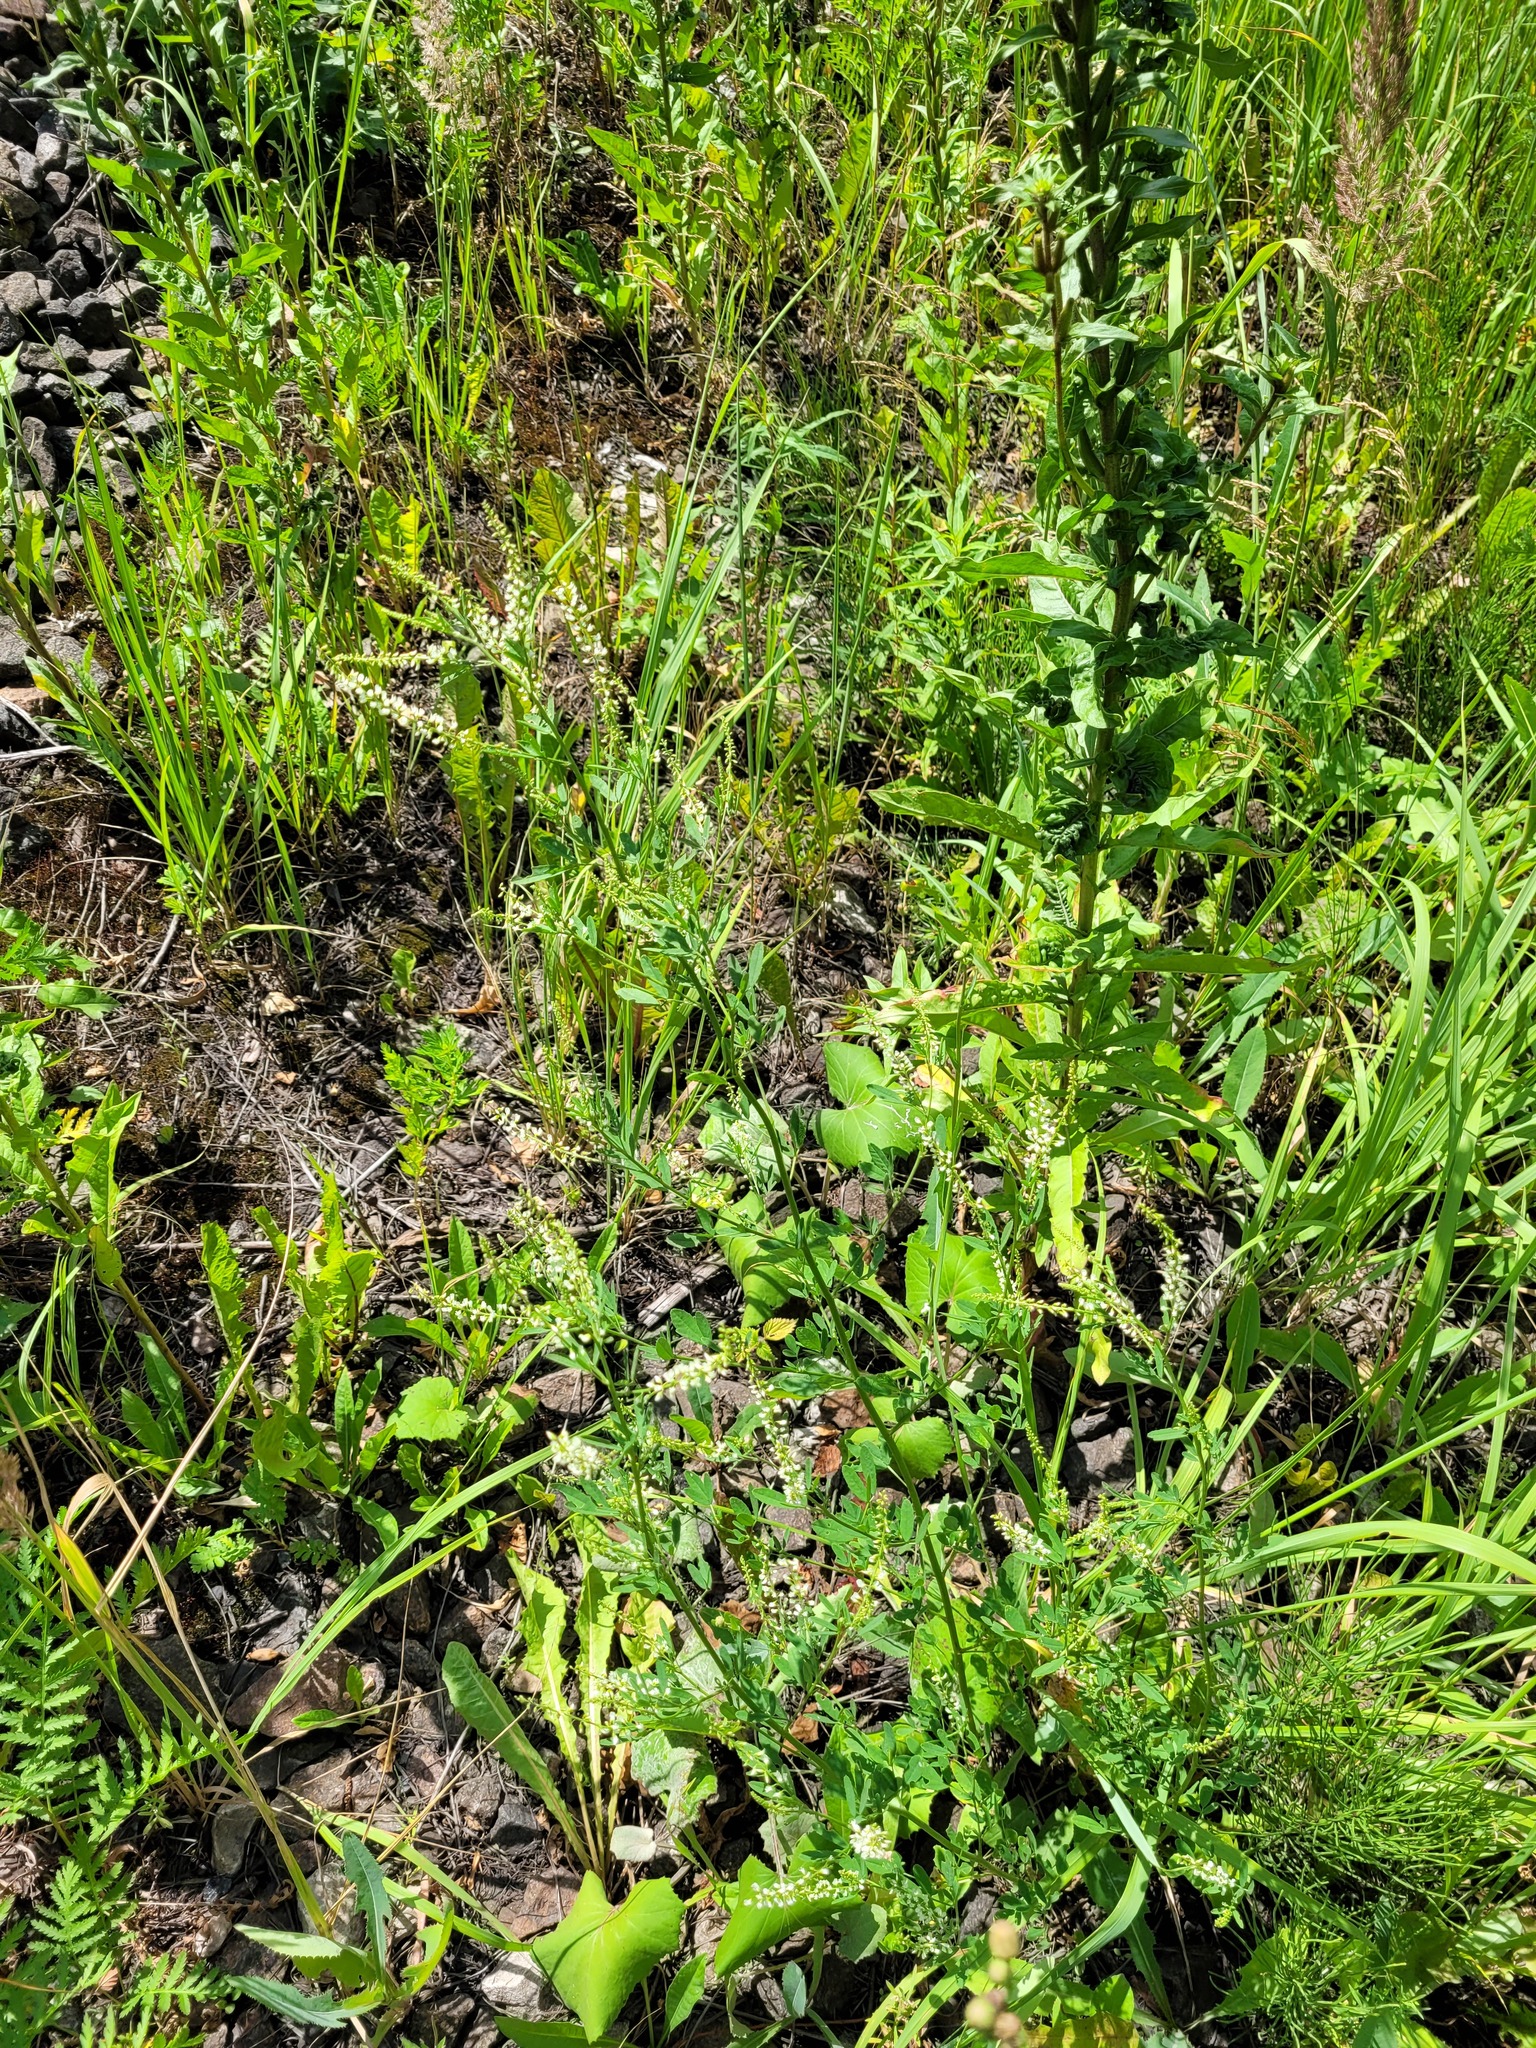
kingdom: Plantae
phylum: Tracheophyta
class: Magnoliopsida
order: Fabales
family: Fabaceae
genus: Melilotus
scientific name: Melilotus albus
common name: White melilot
